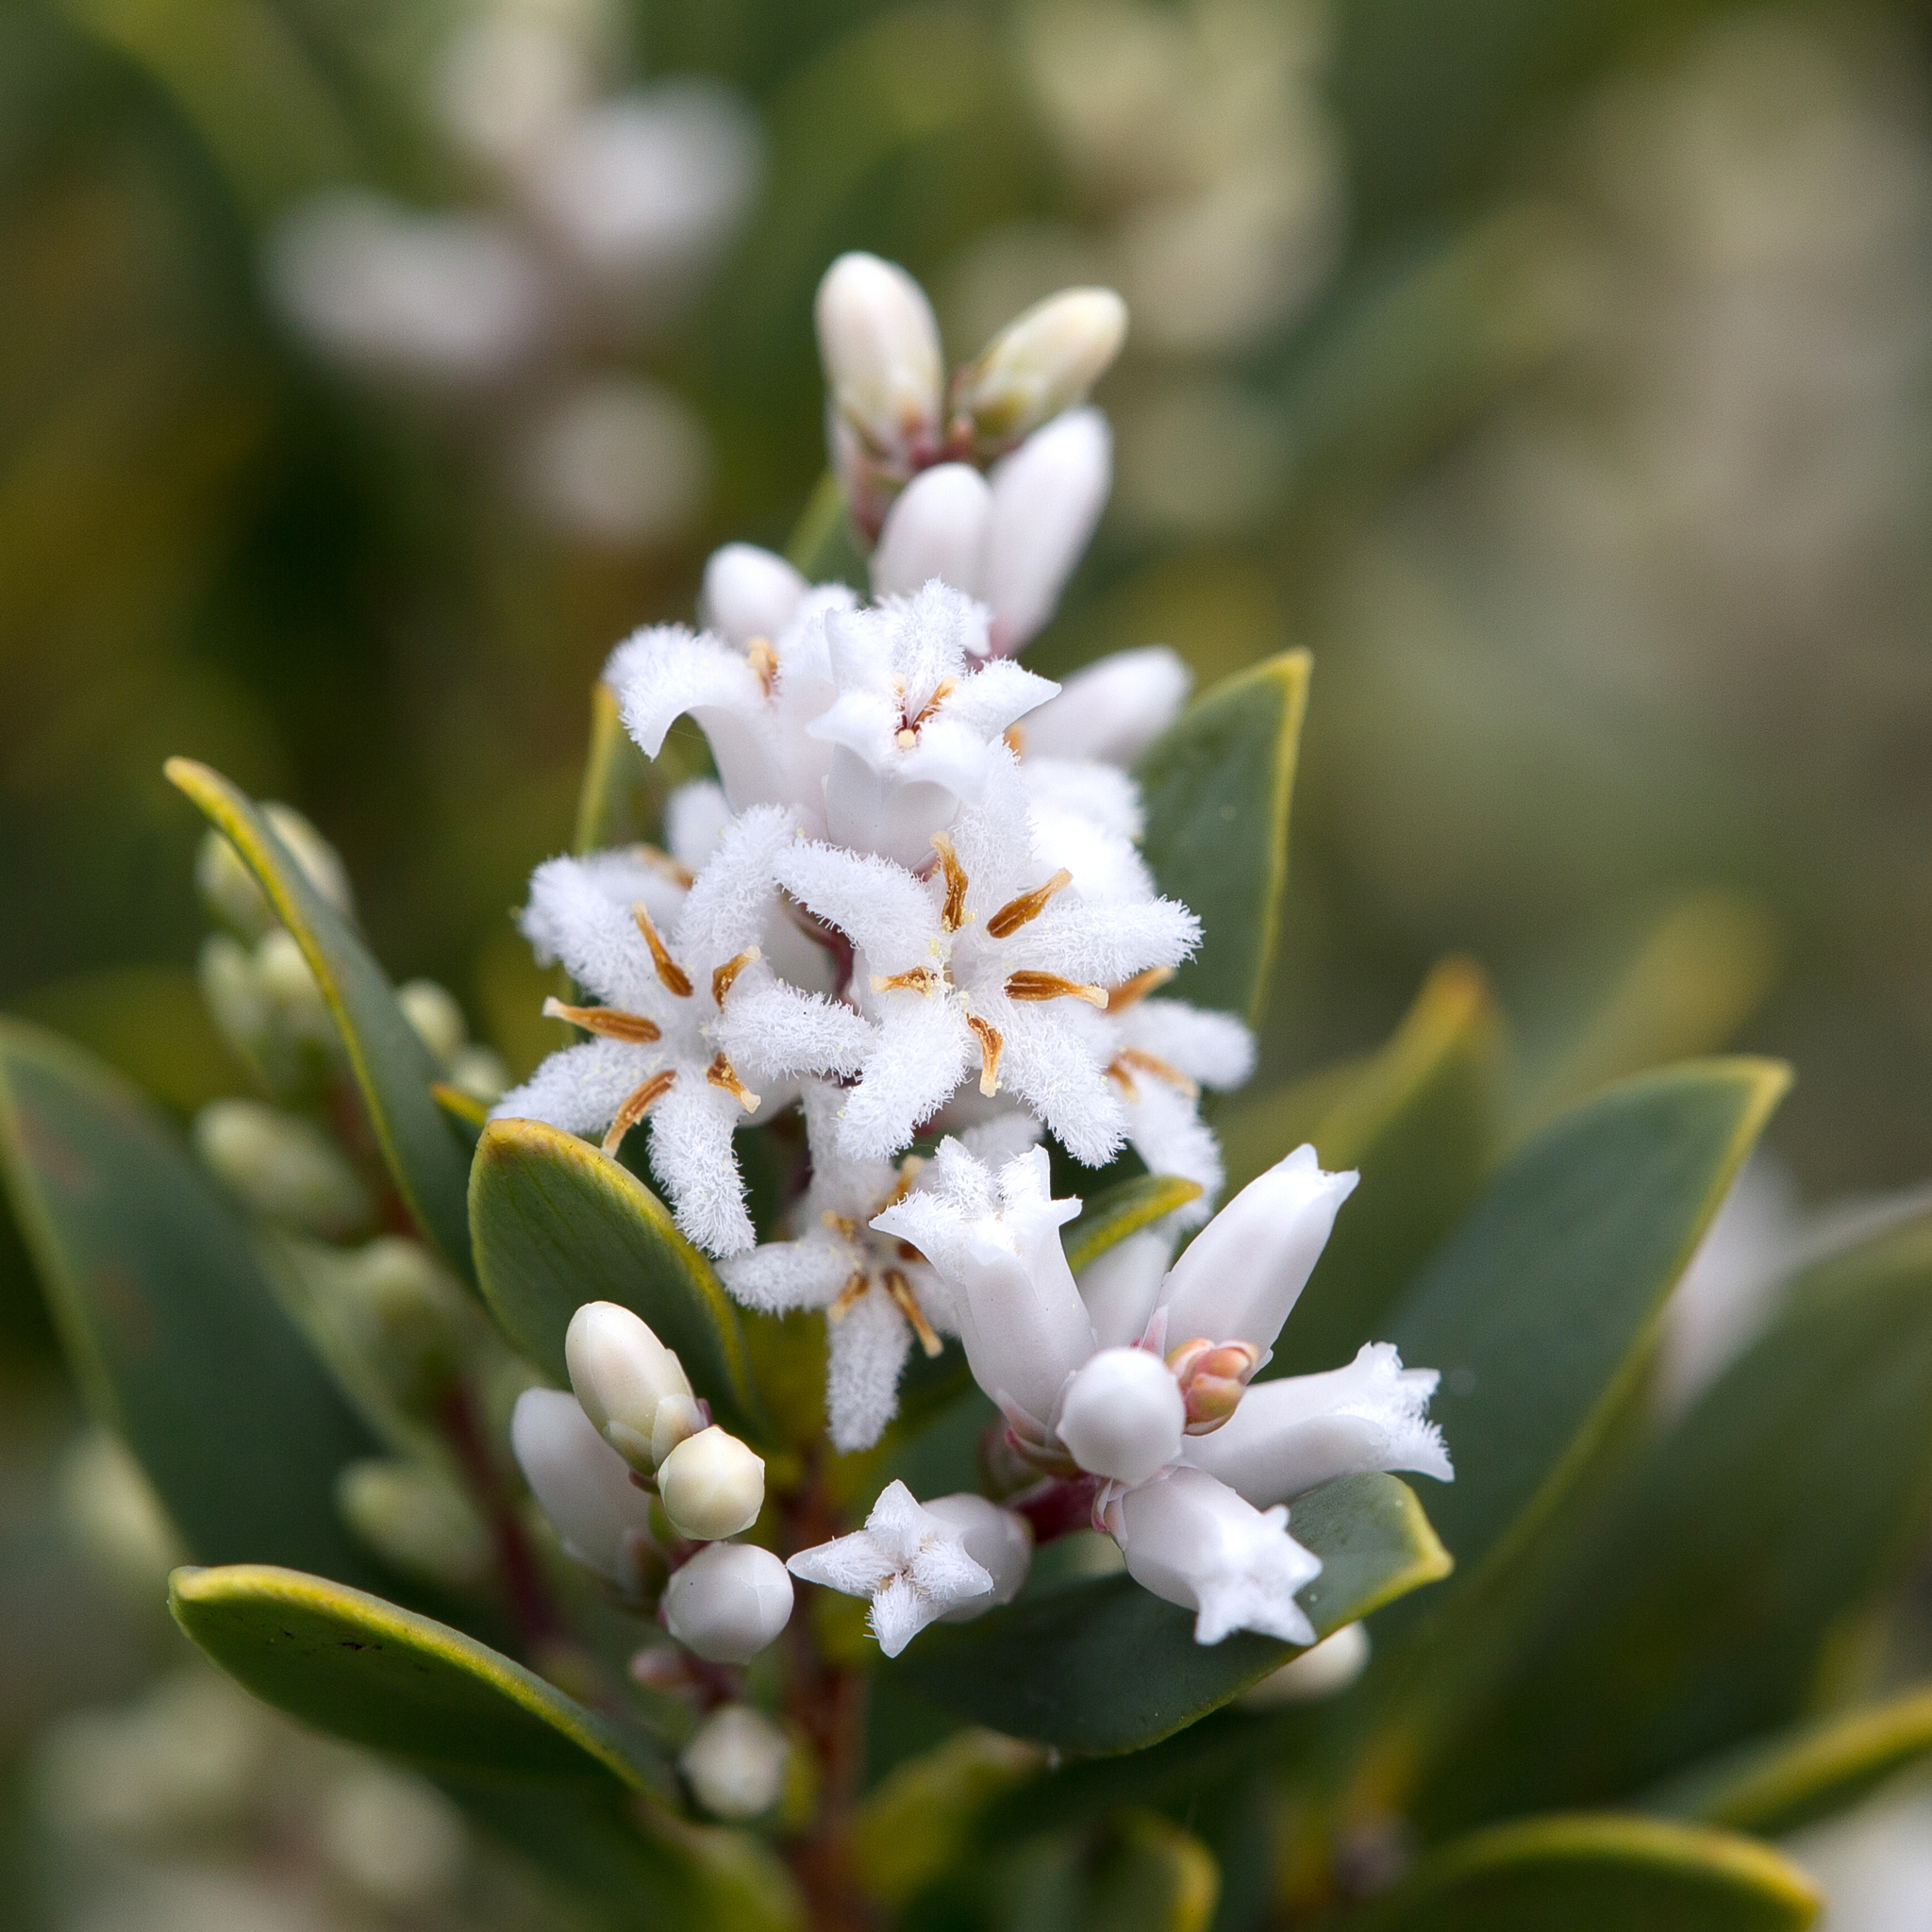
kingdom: Plantae
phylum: Tracheophyta
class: Magnoliopsida
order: Ericales
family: Ericaceae
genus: Leptecophylla
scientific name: Leptecophylla parvifolia
